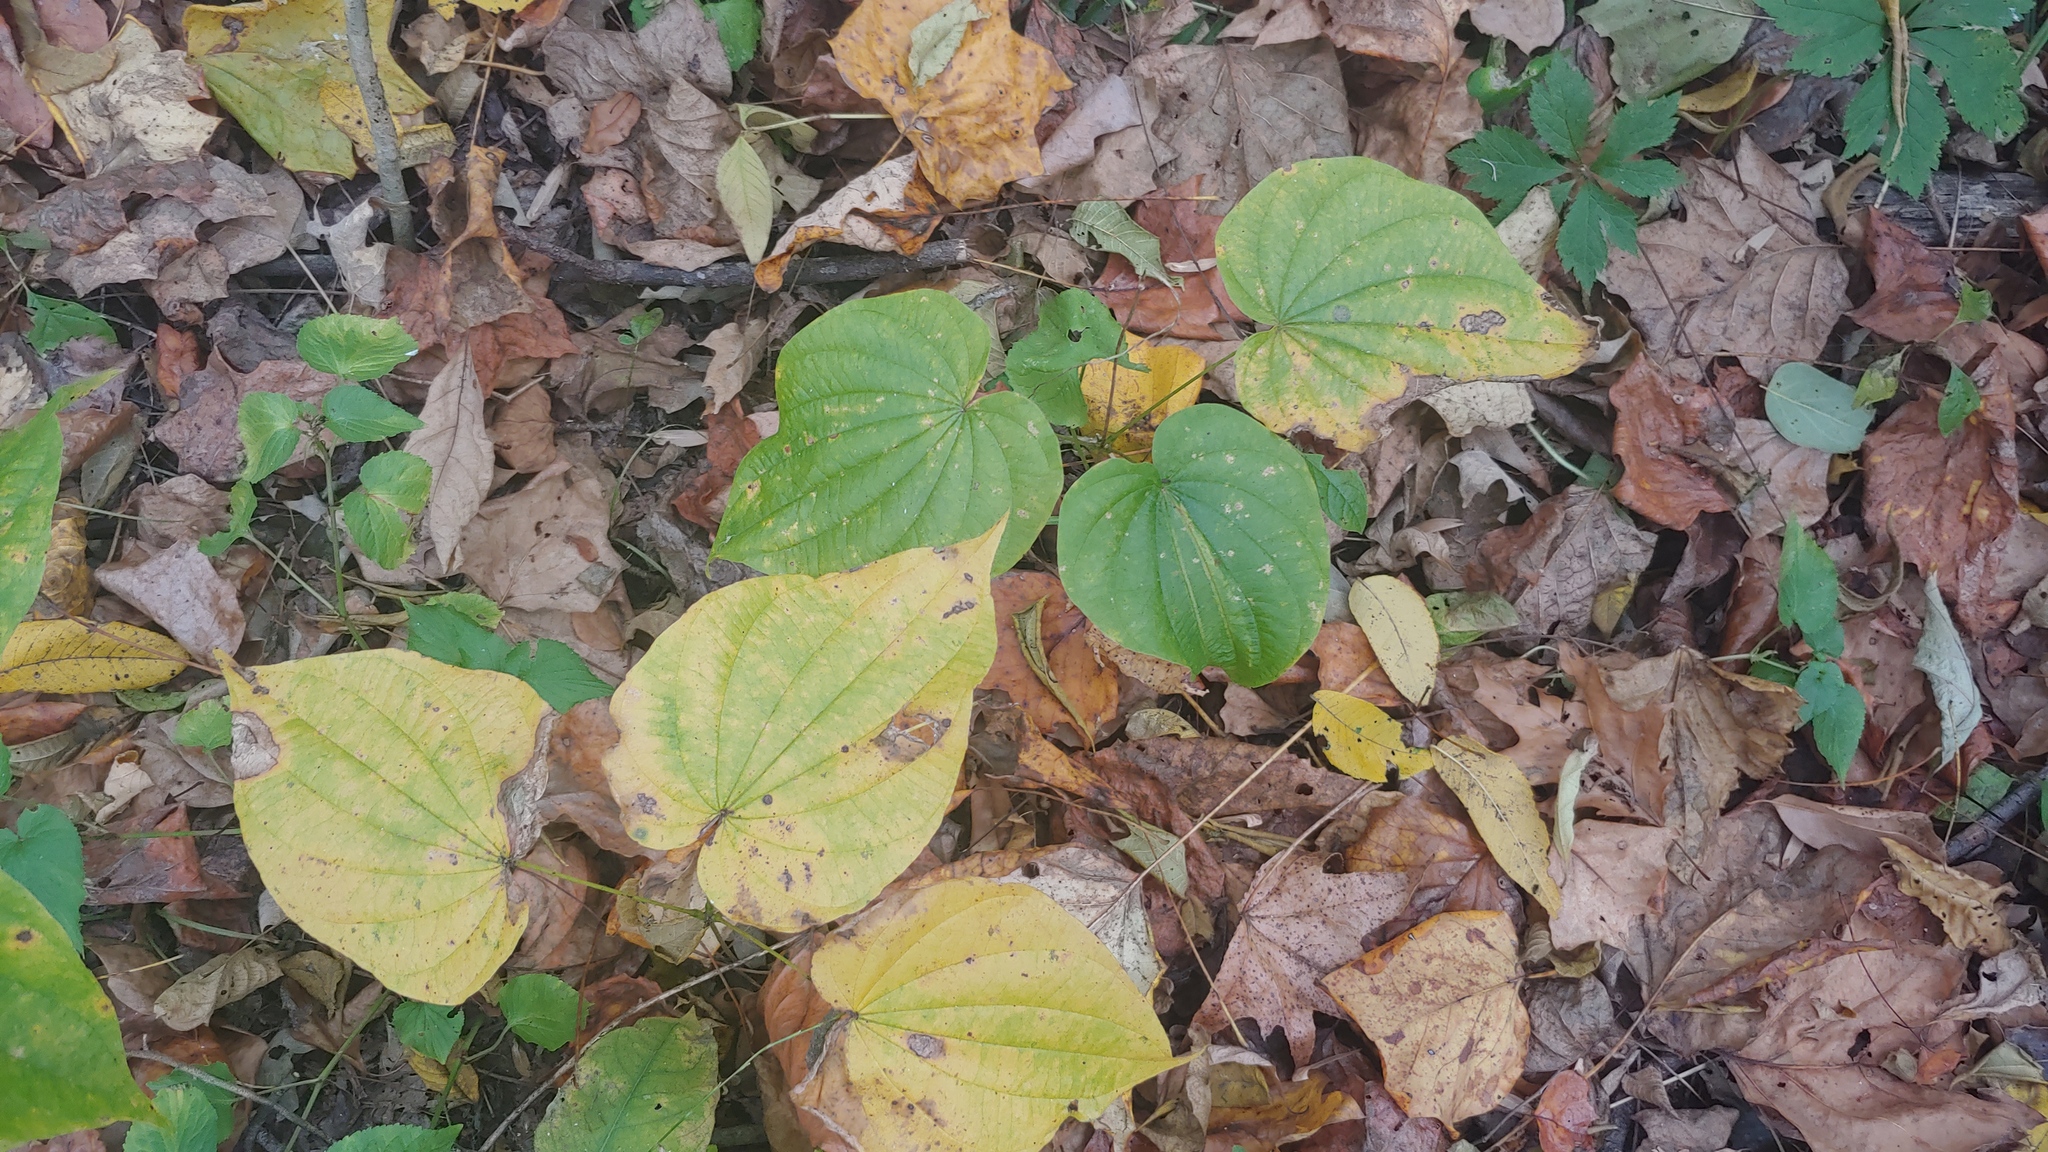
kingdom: Plantae
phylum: Tracheophyta
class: Liliopsida
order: Dioscoreales
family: Dioscoreaceae
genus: Dioscorea
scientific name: Dioscorea villosa
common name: Wild yam
